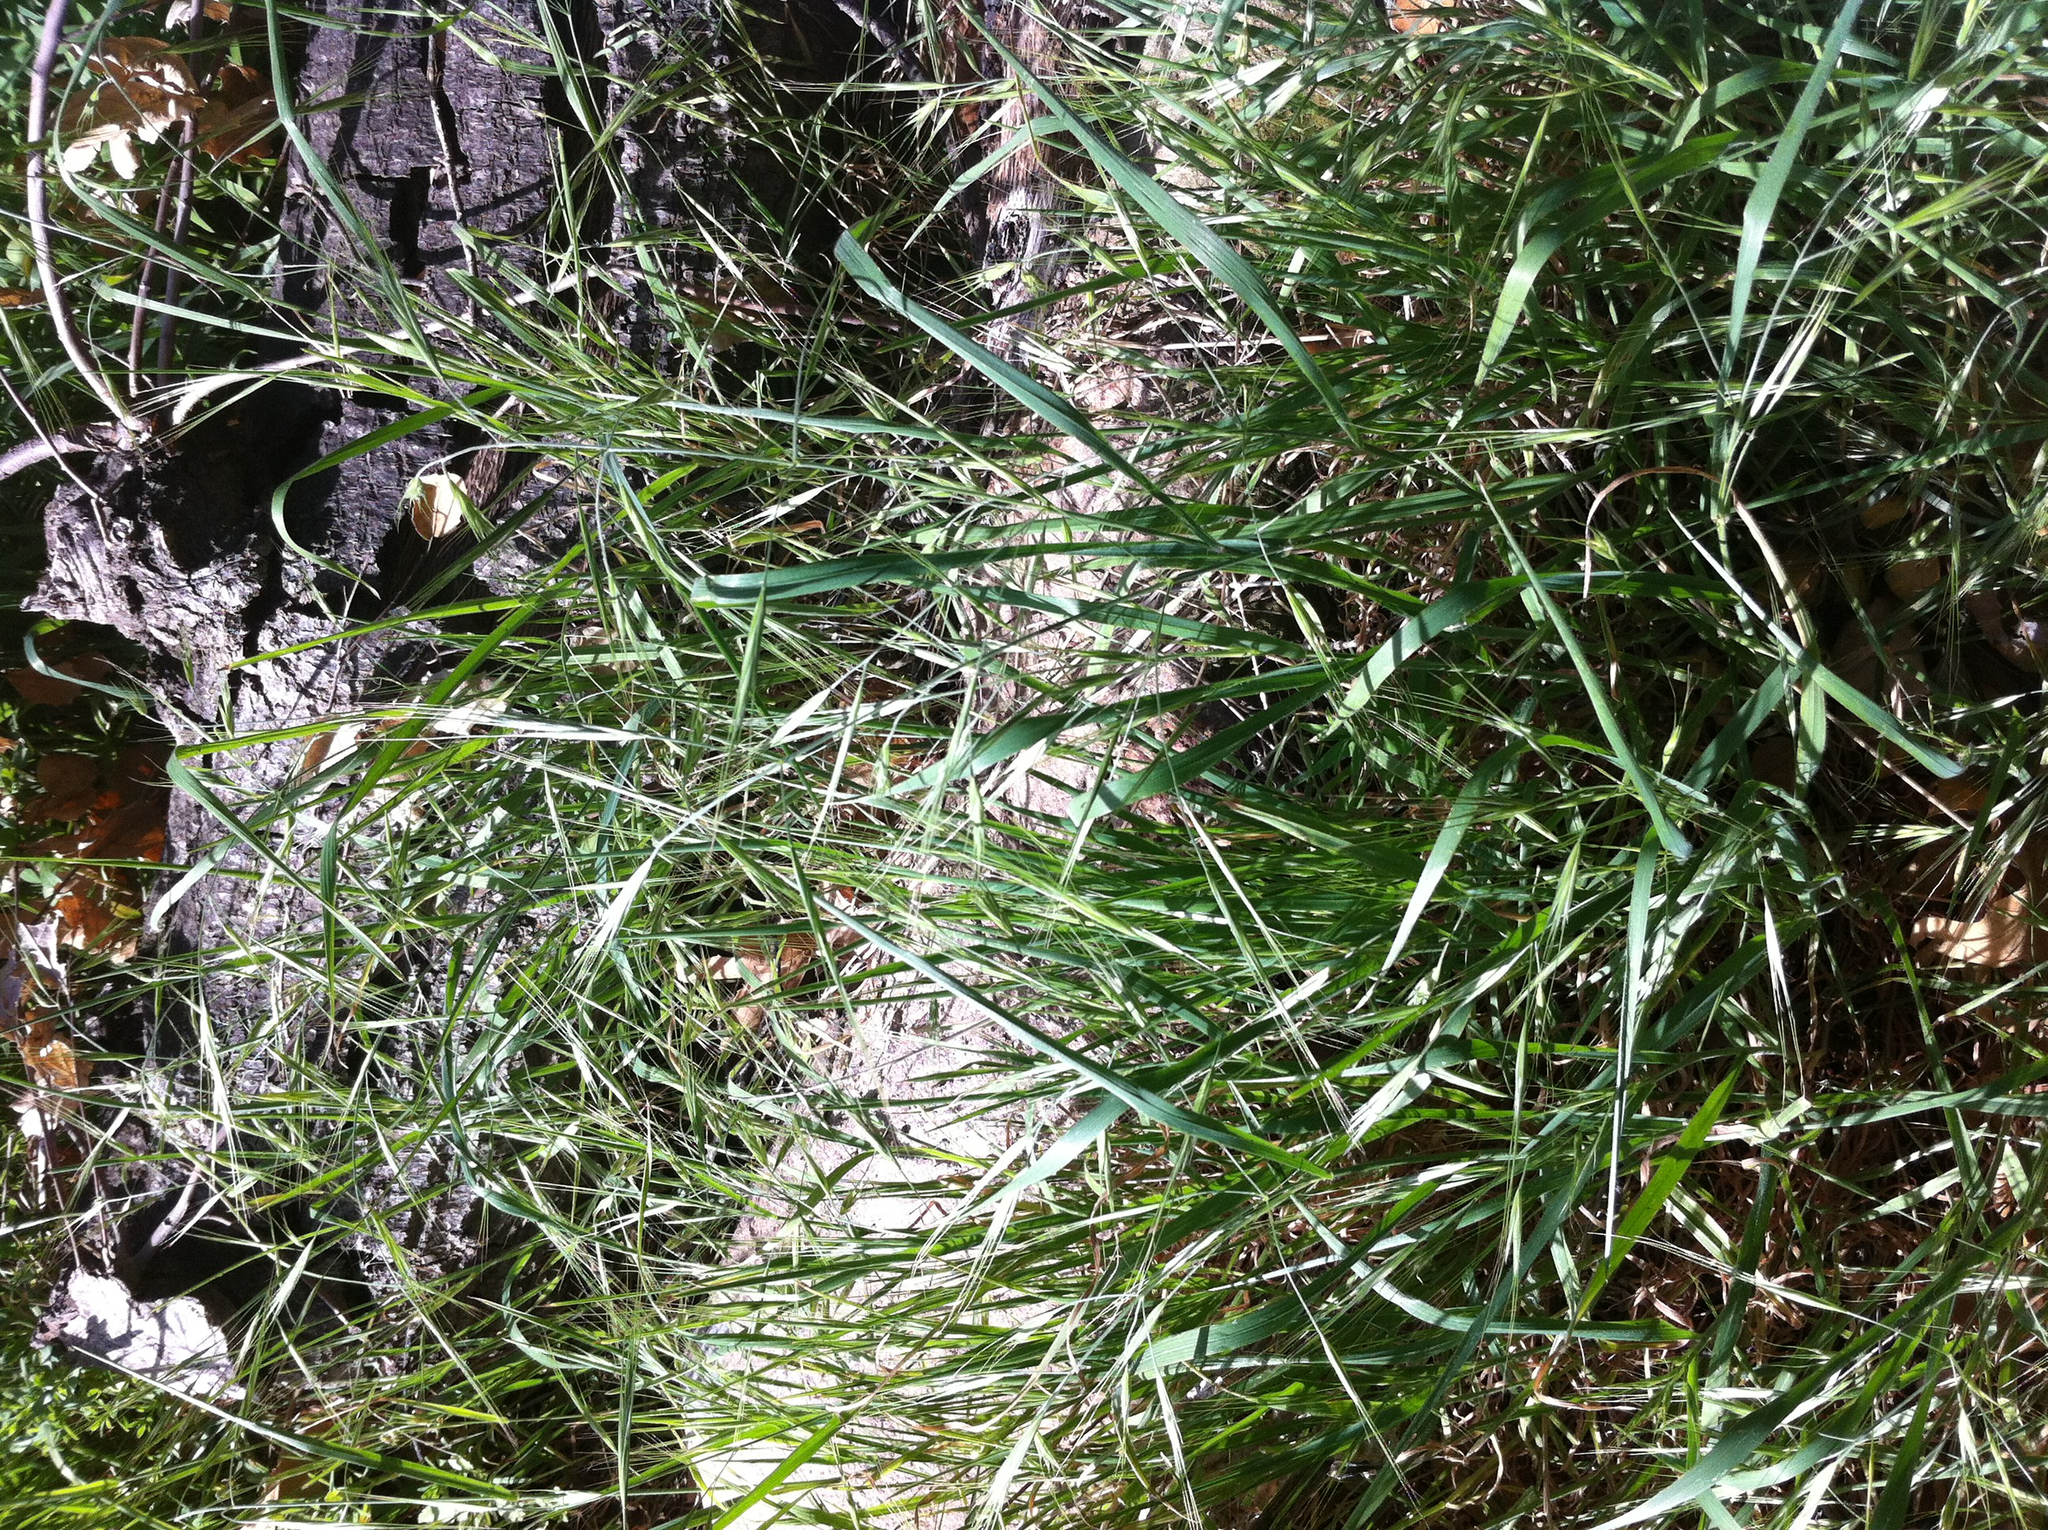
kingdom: Plantae
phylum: Tracheophyta
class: Liliopsida
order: Poales
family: Poaceae
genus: Bromus
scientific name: Bromus diandrus
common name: Ripgut brome
